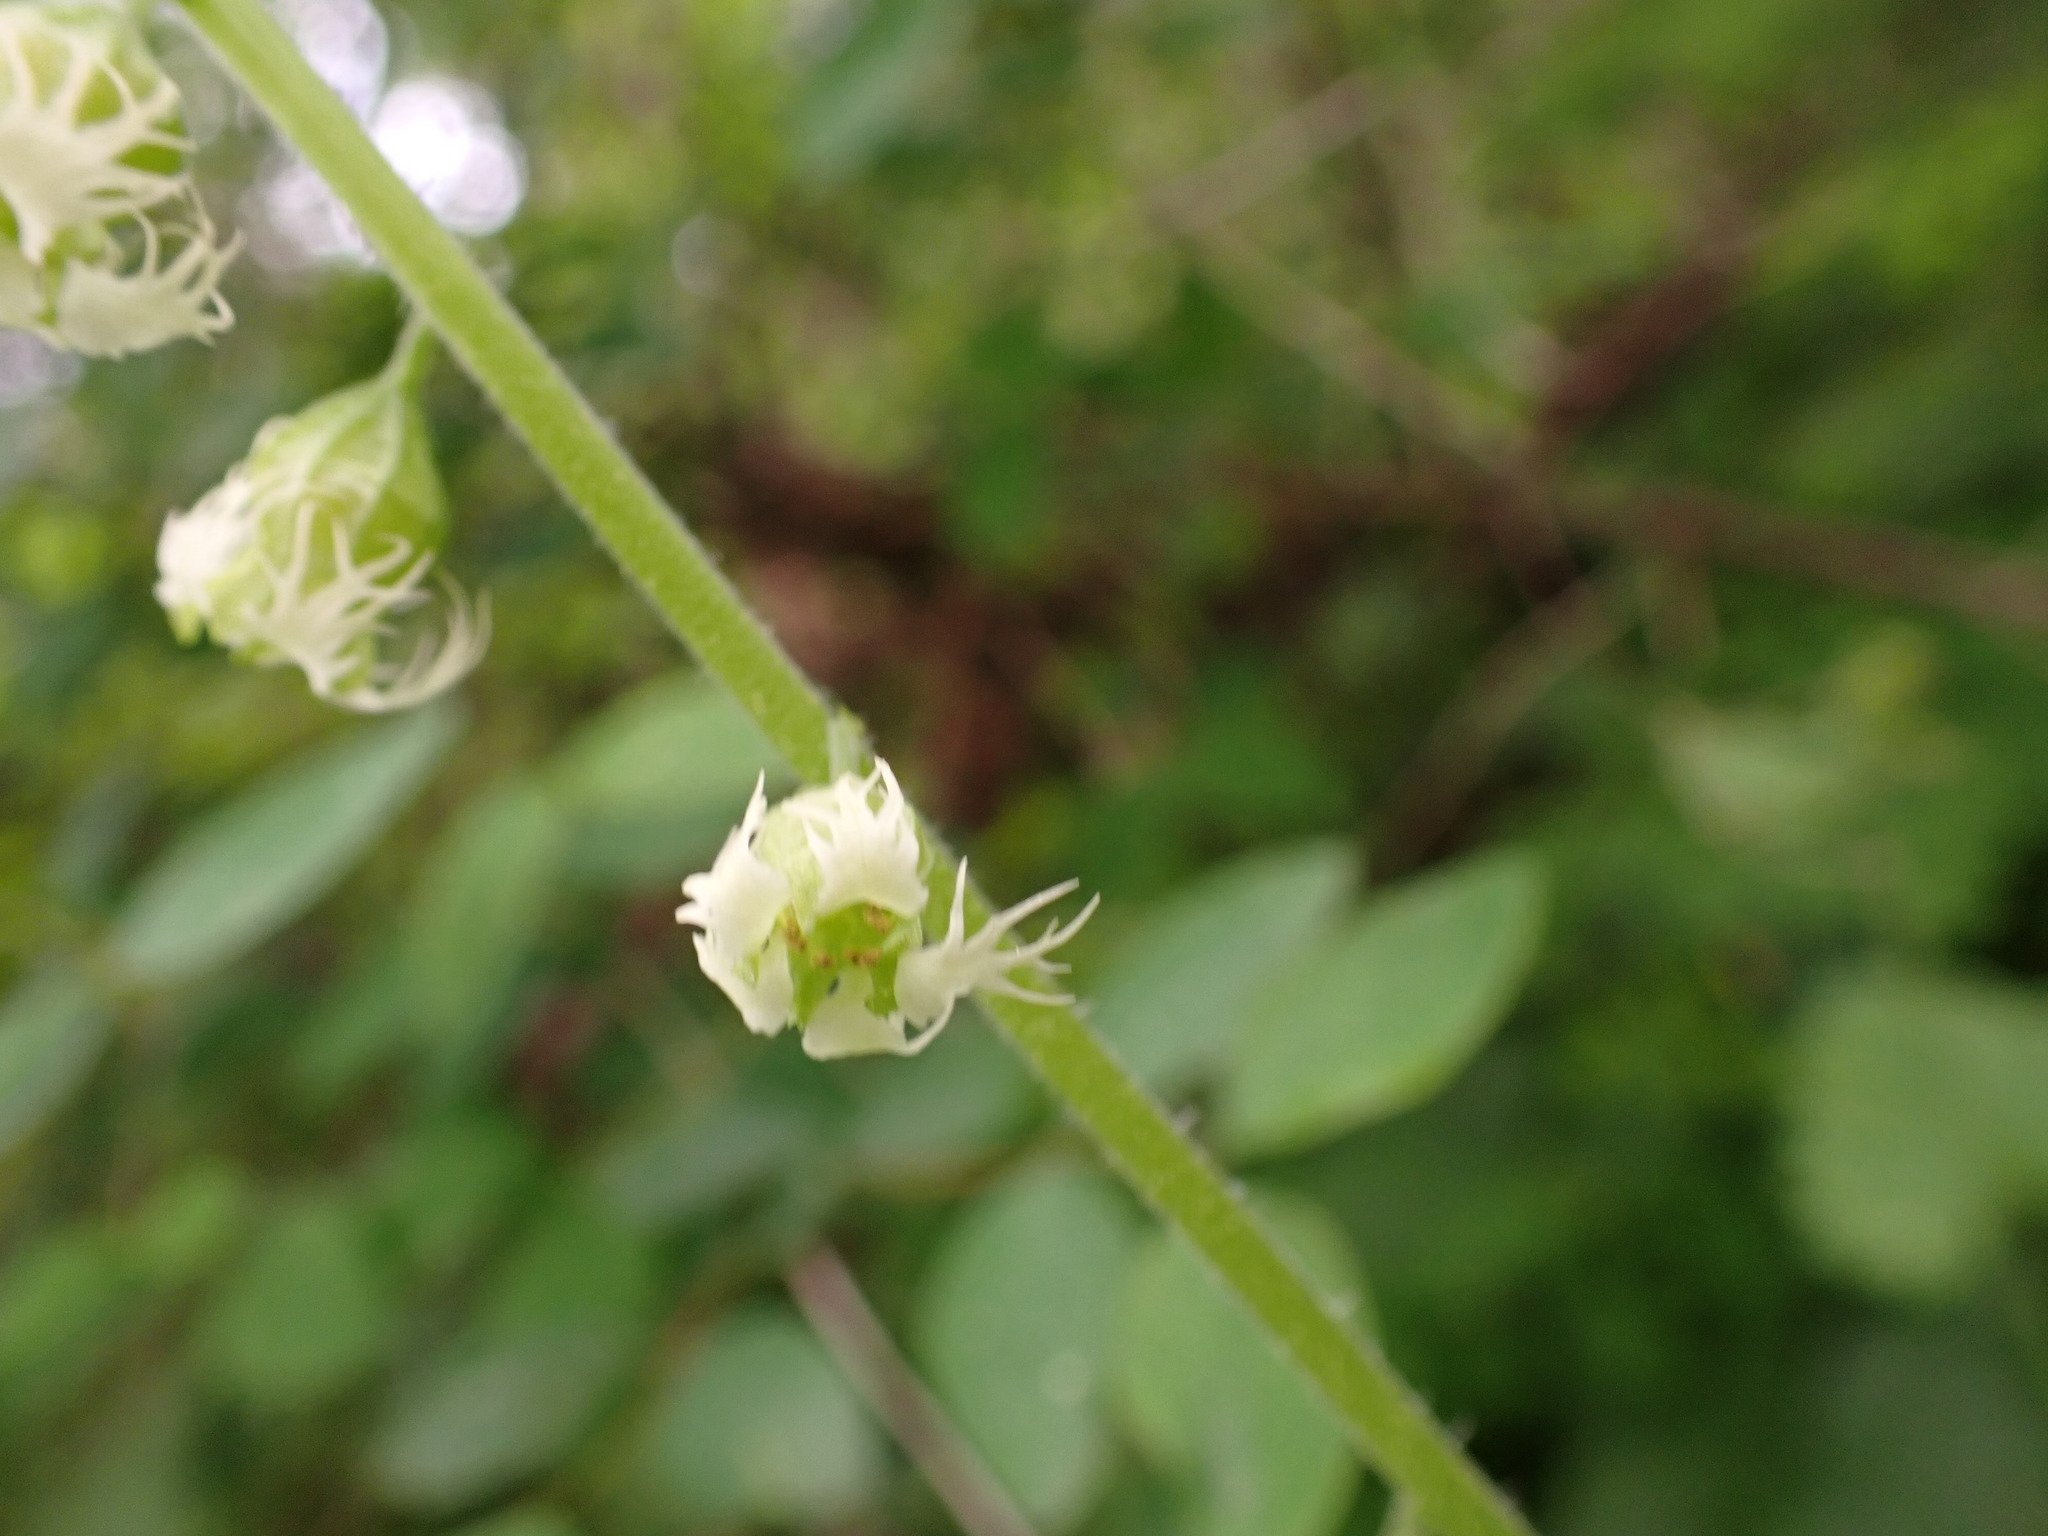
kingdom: Plantae
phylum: Tracheophyta
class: Magnoliopsida
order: Saxifragales
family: Saxifragaceae
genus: Tellima
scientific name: Tellima grandiflora
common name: Fringecups
